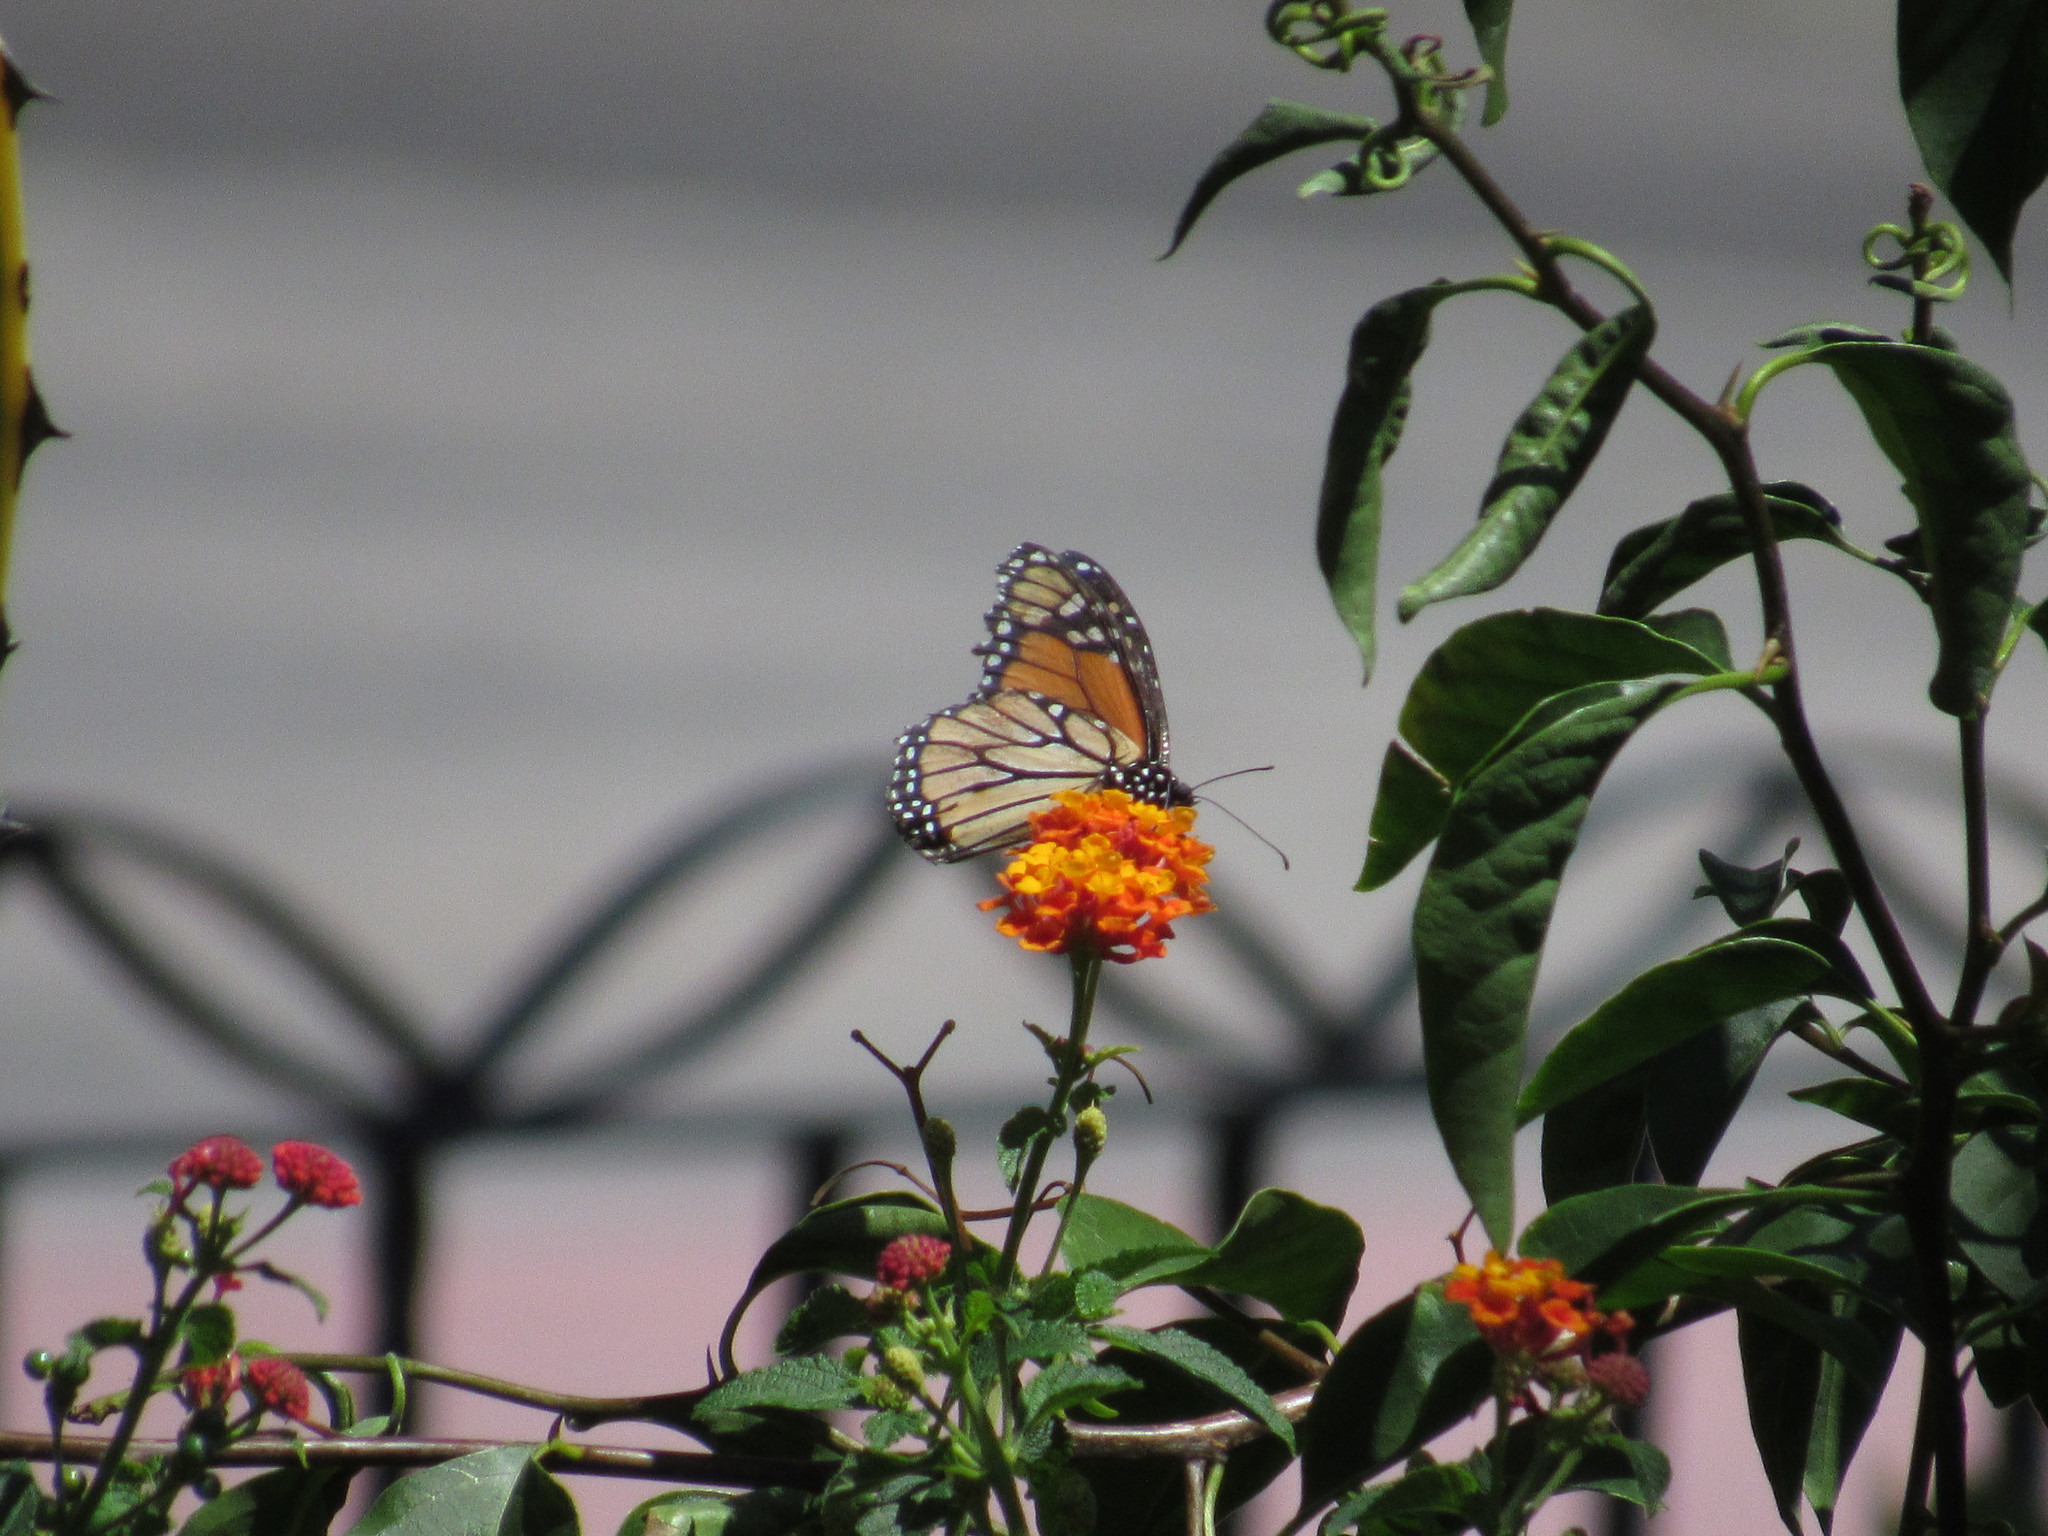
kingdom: Animalia
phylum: Arthropoda
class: Insecta
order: Lepidoptera
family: Nymphalidae
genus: Danaus
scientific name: Danaus plexippus
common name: Monarch
